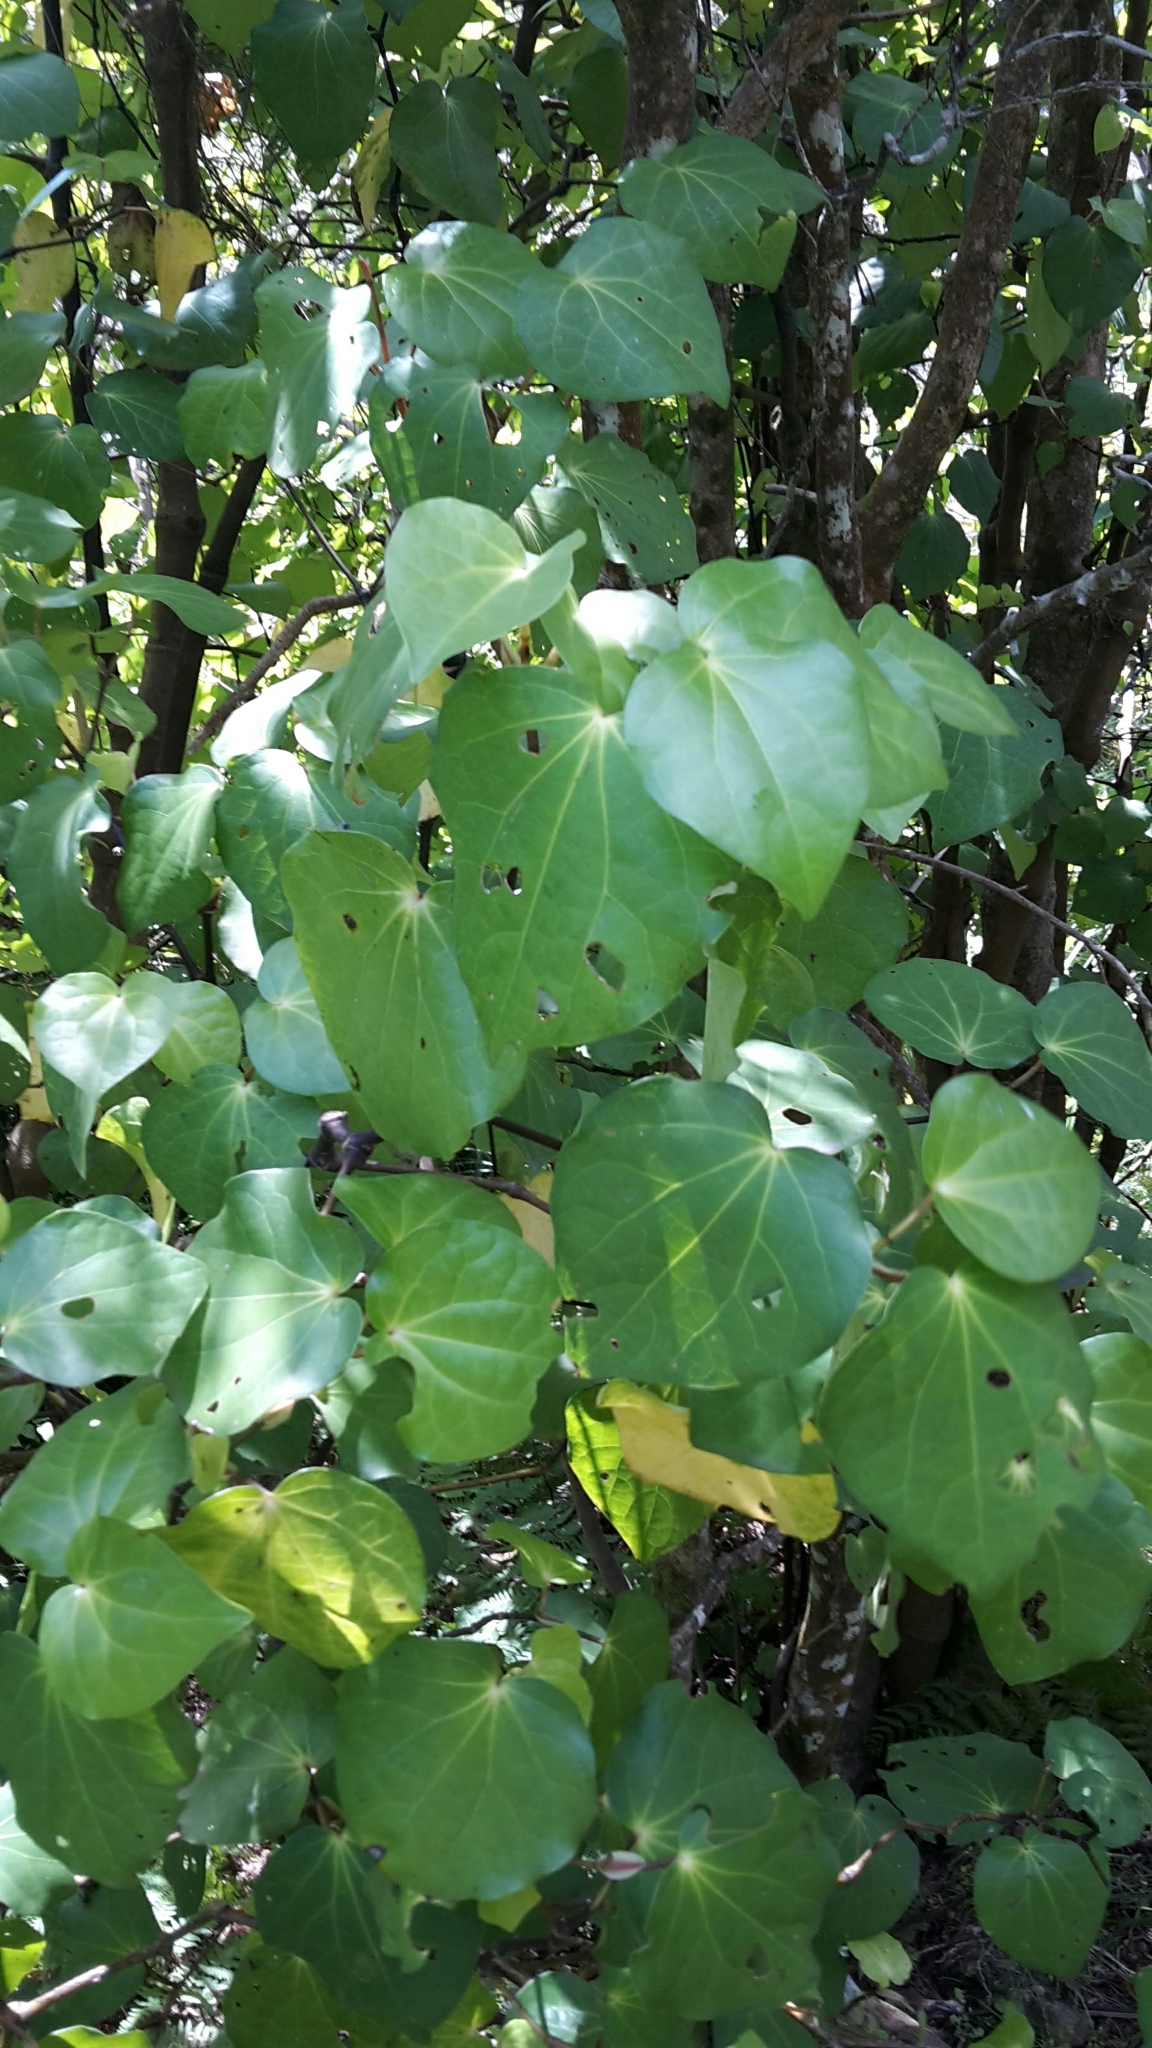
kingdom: Plantae
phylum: Tracheophyta
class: Magnoliopsida
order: Piperales
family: Piperaceae
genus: Macropiper
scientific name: Macropiper excelsum
